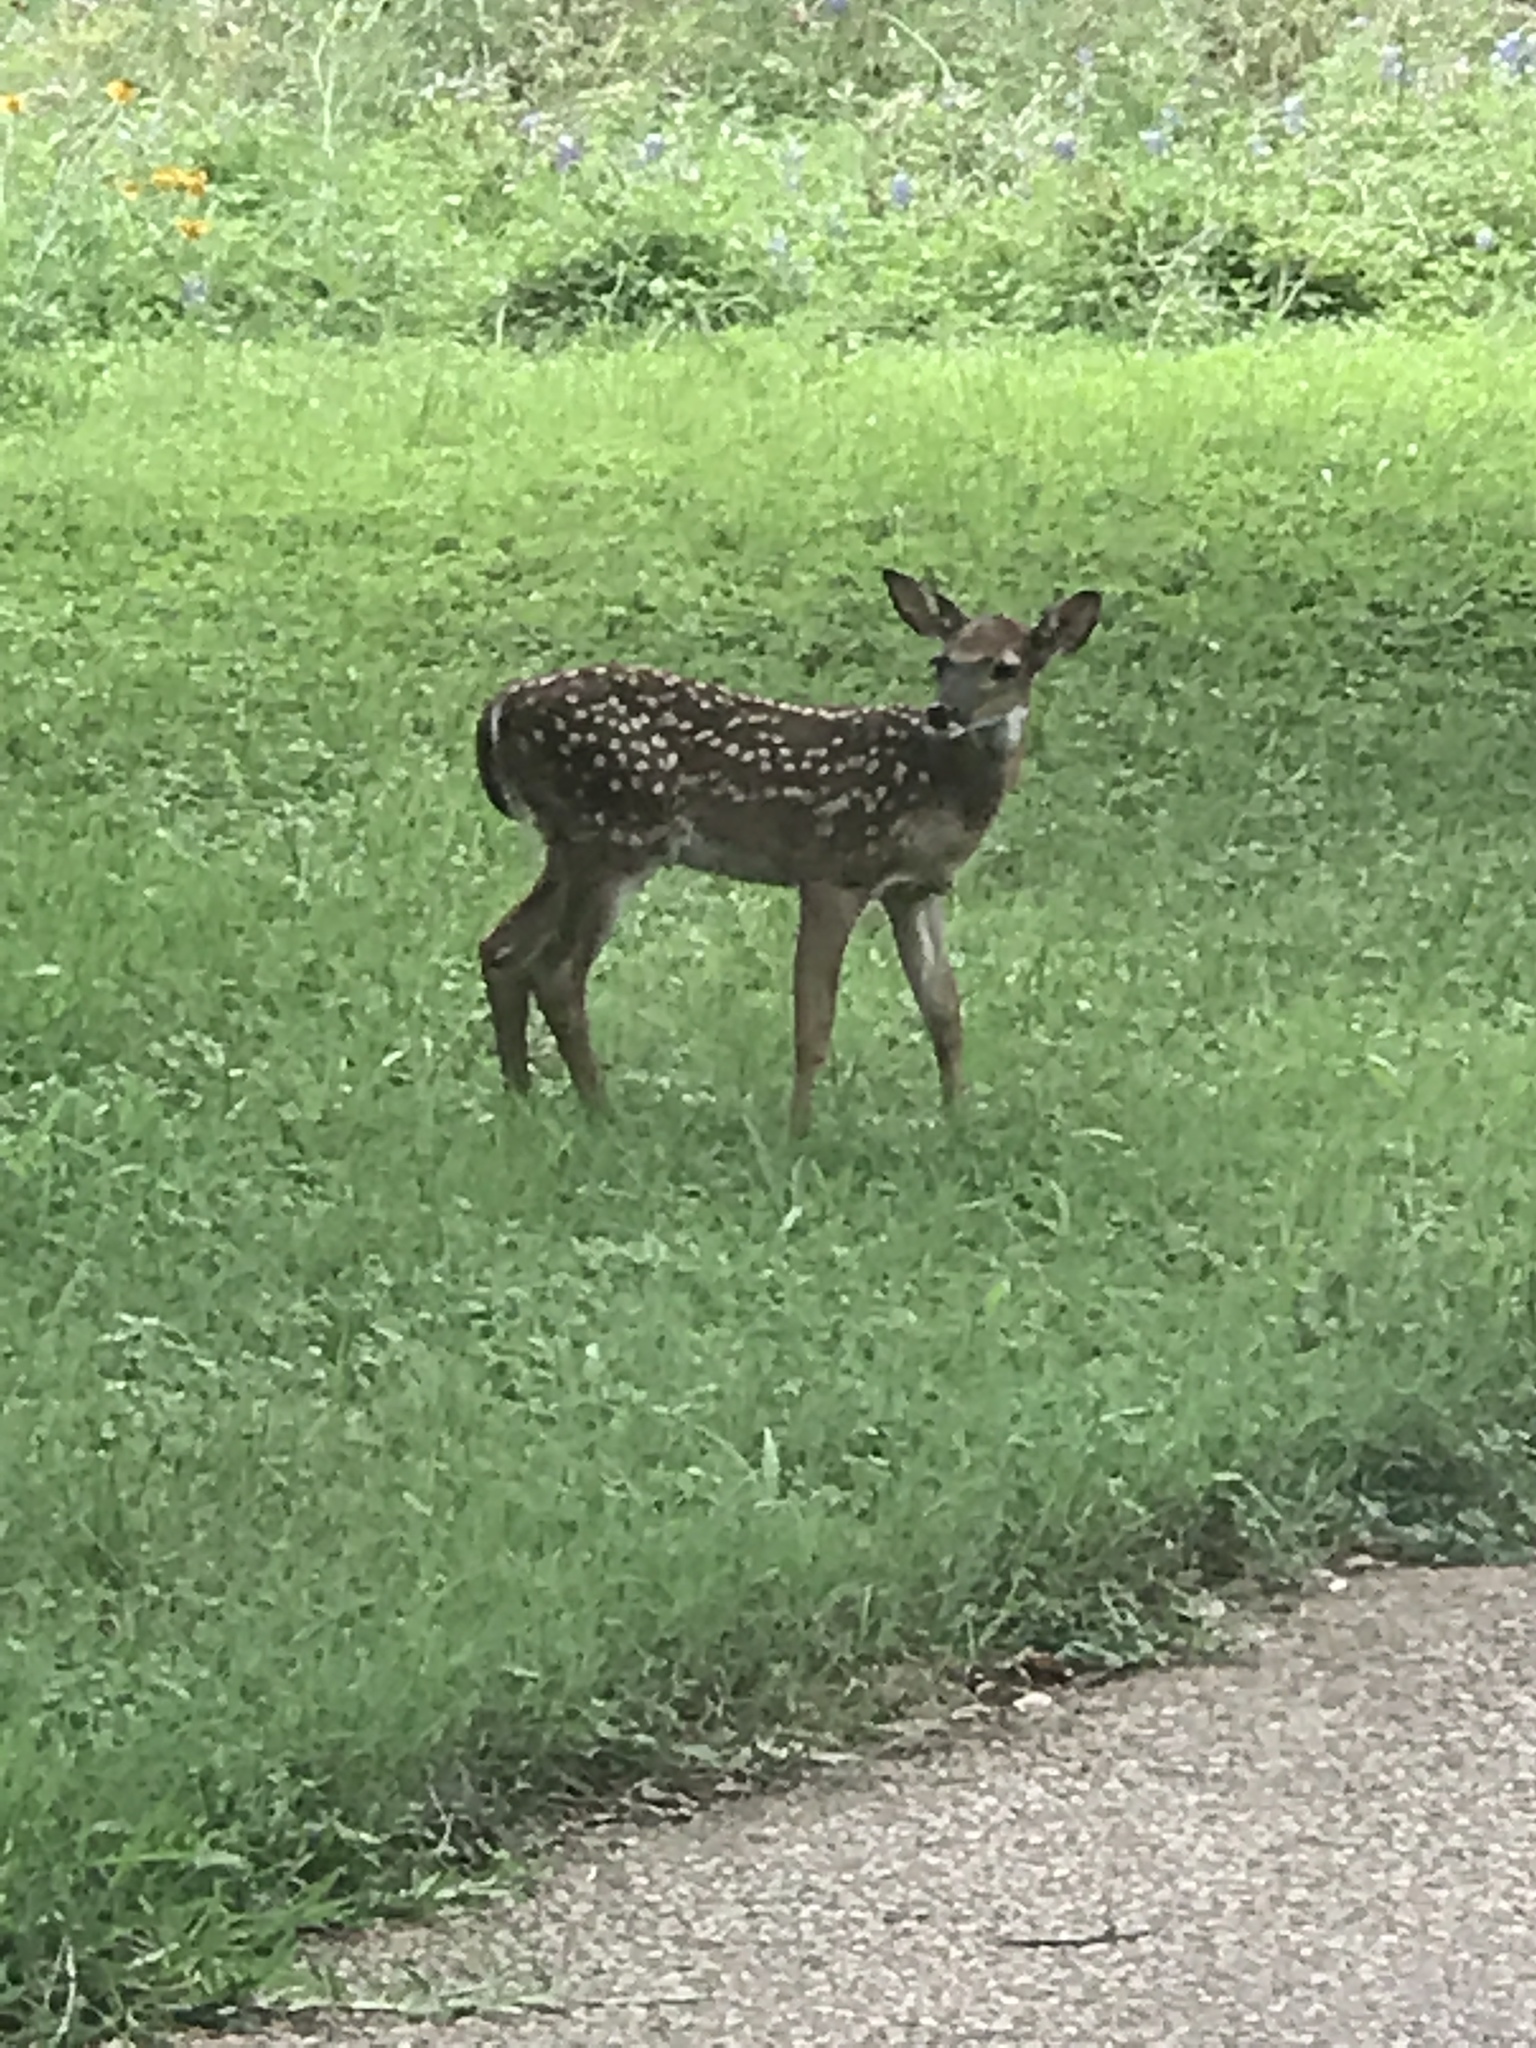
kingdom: Animalia
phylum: Chordata
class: Mammalia
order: Artiodactyla
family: Cervidae
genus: Odocoileus
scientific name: Odocoileus virginianus
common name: White-tailed deer
